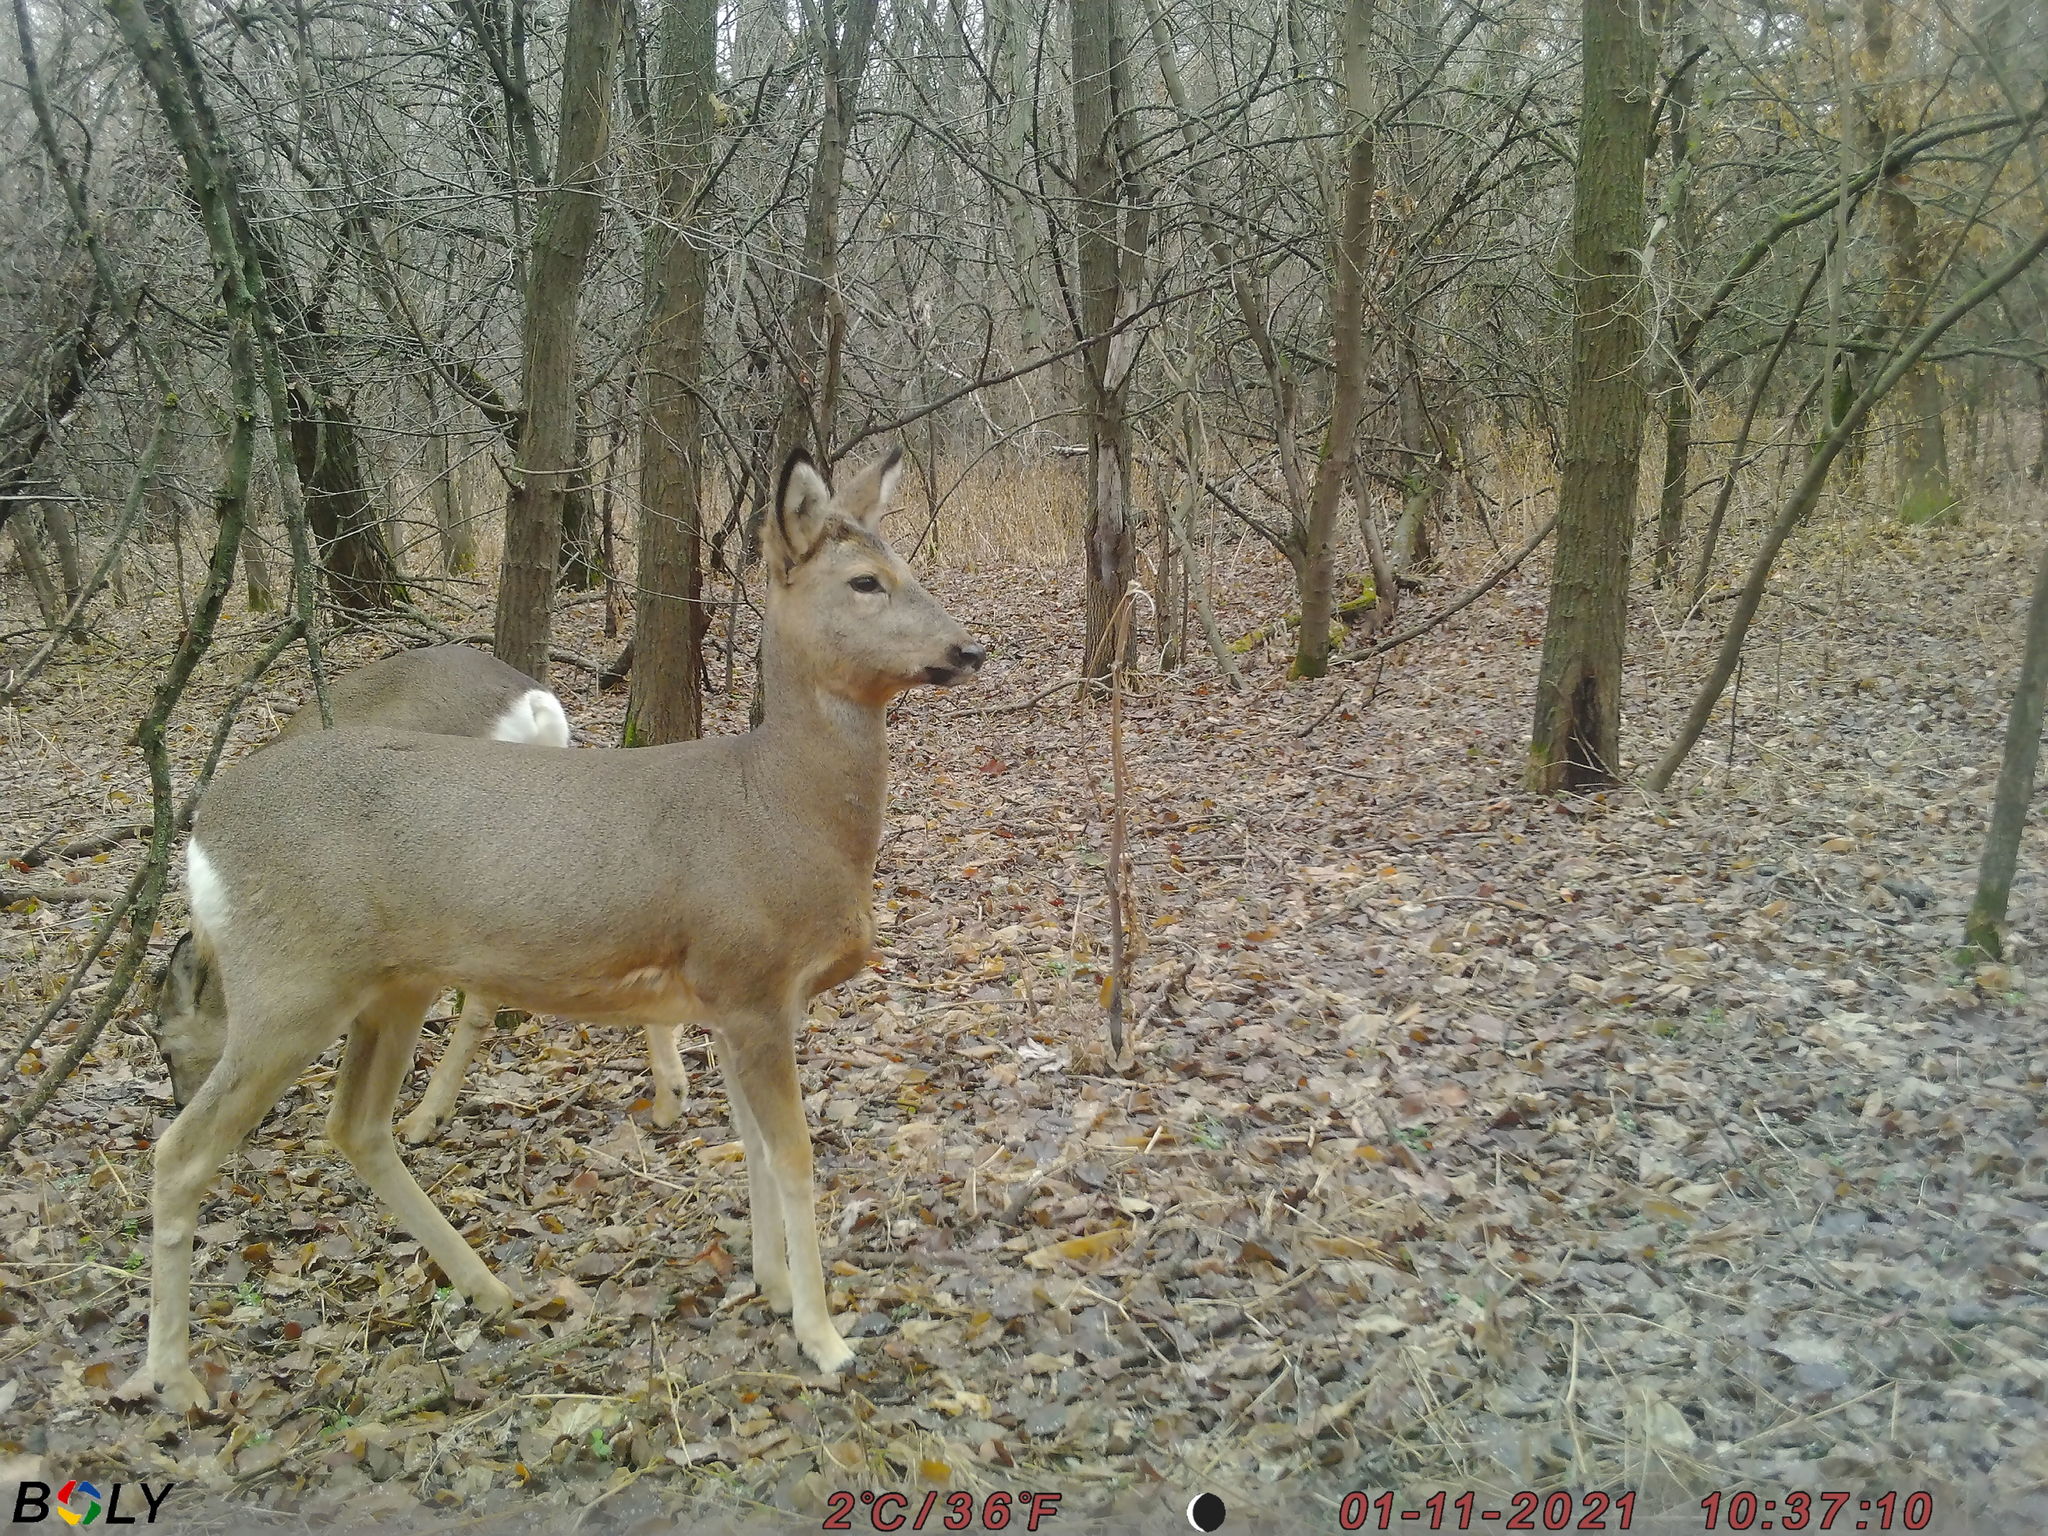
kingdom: Animalia
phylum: Chordata
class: Mammalia
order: Artiodactyla
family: Cervidae
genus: Capreolus
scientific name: Capreolus pygargus
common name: Siberian roe
